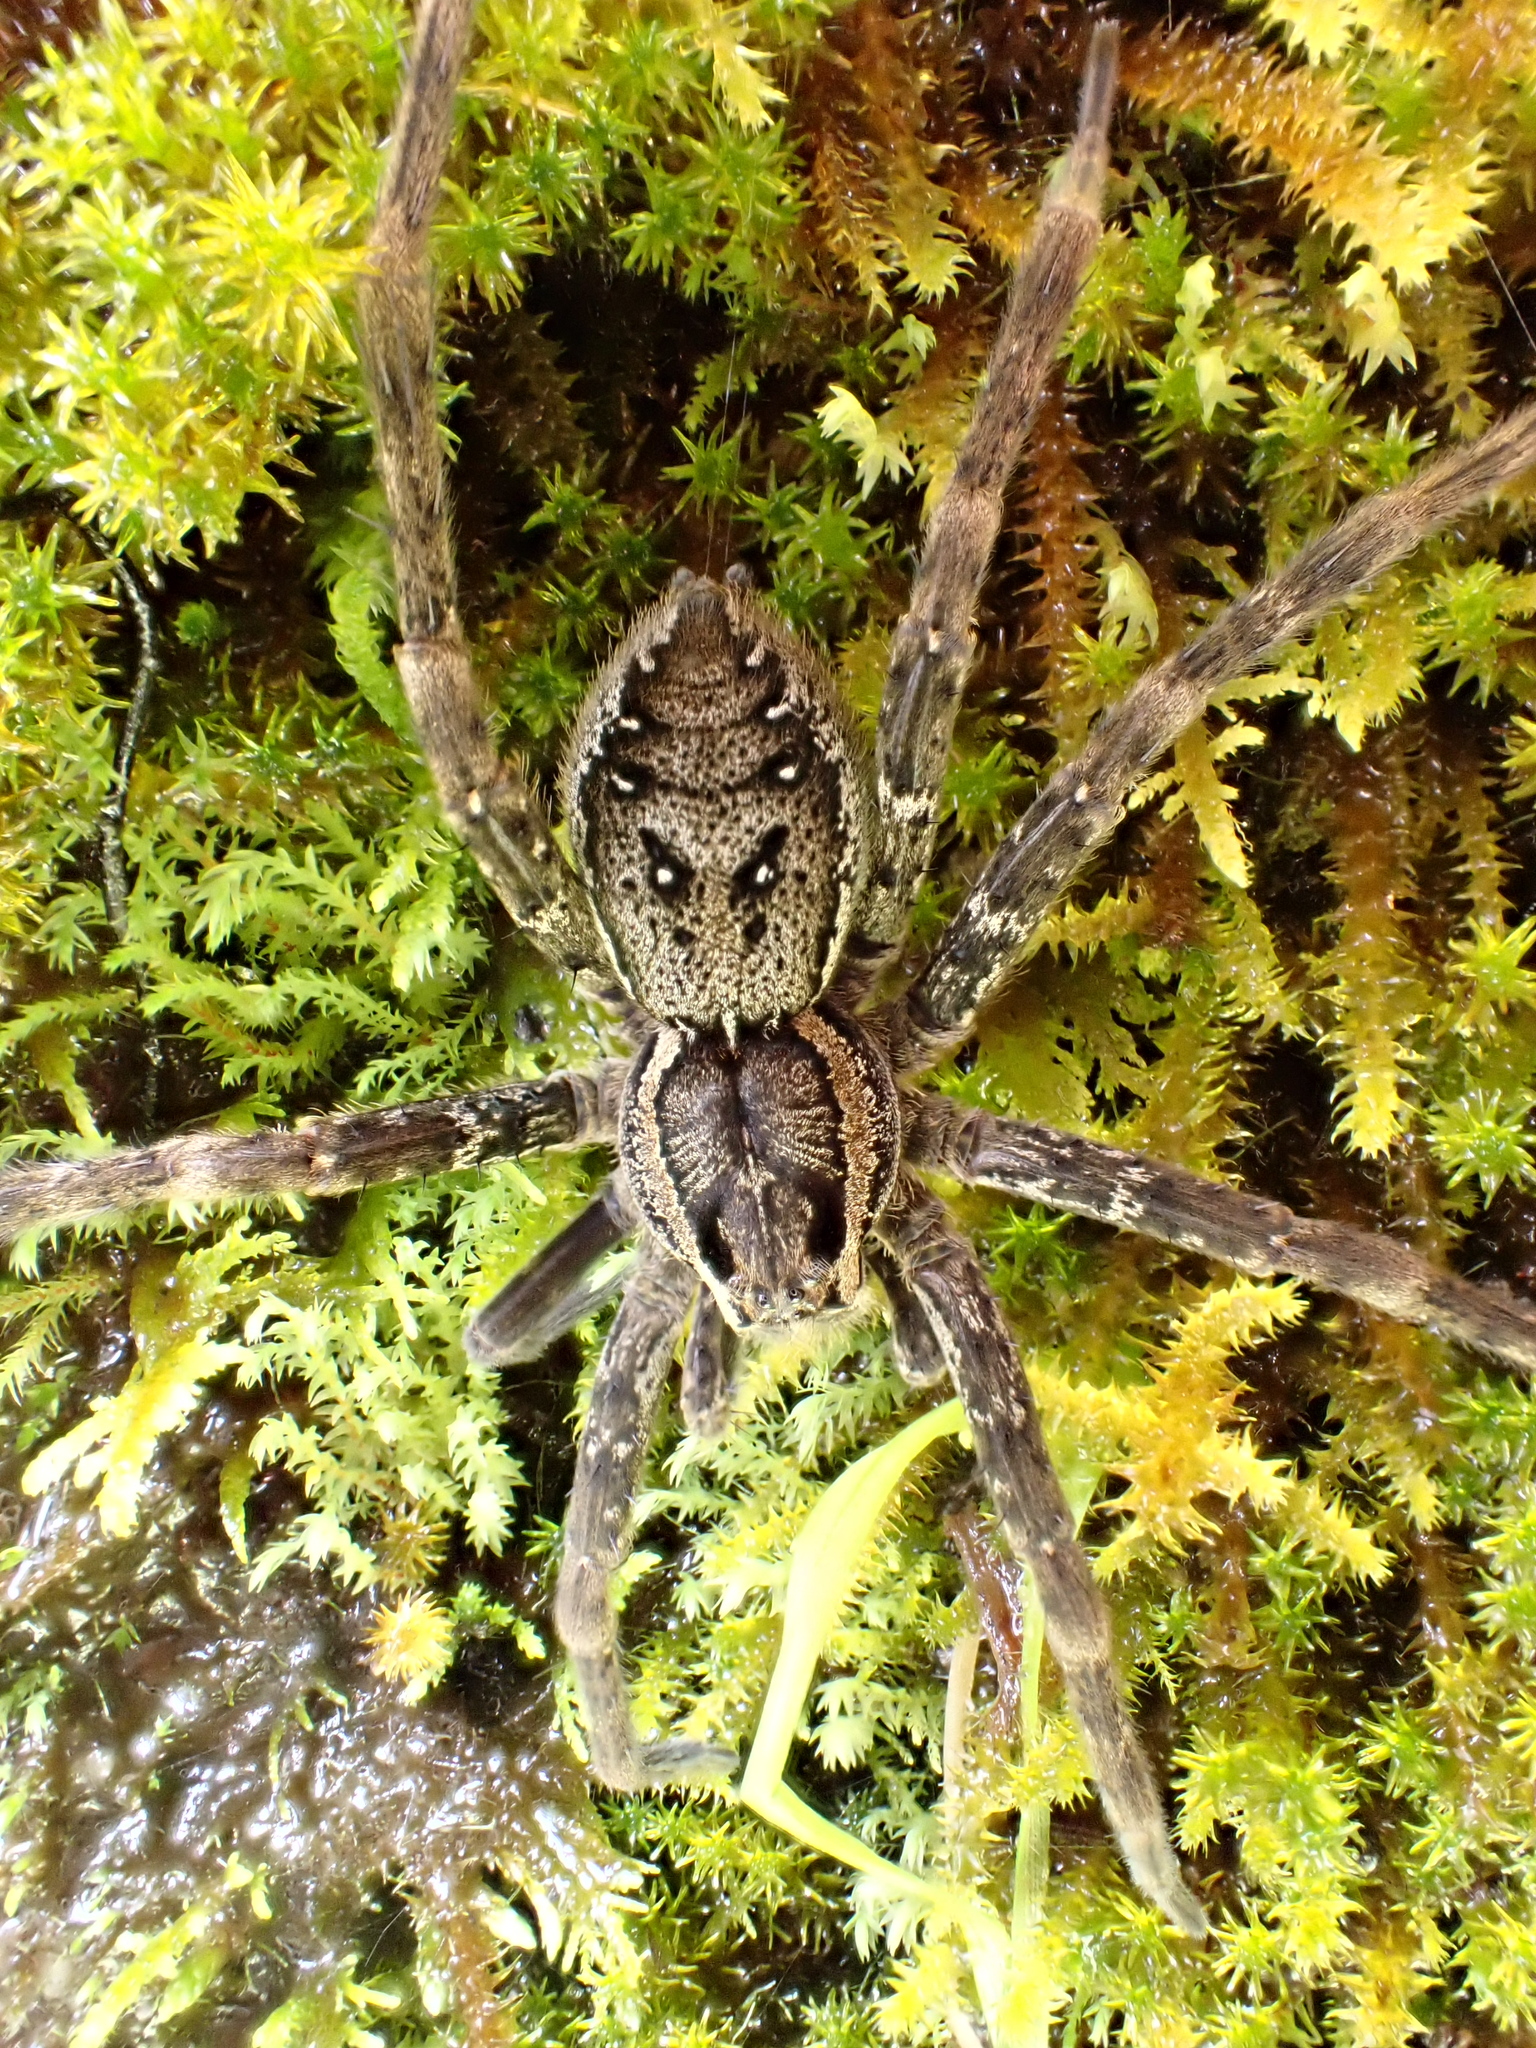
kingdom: Animalia
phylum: Arthropoda
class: Arachnida
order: Araneae
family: Pisauridae
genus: Dolomedes
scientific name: Dolomedes dondalei
